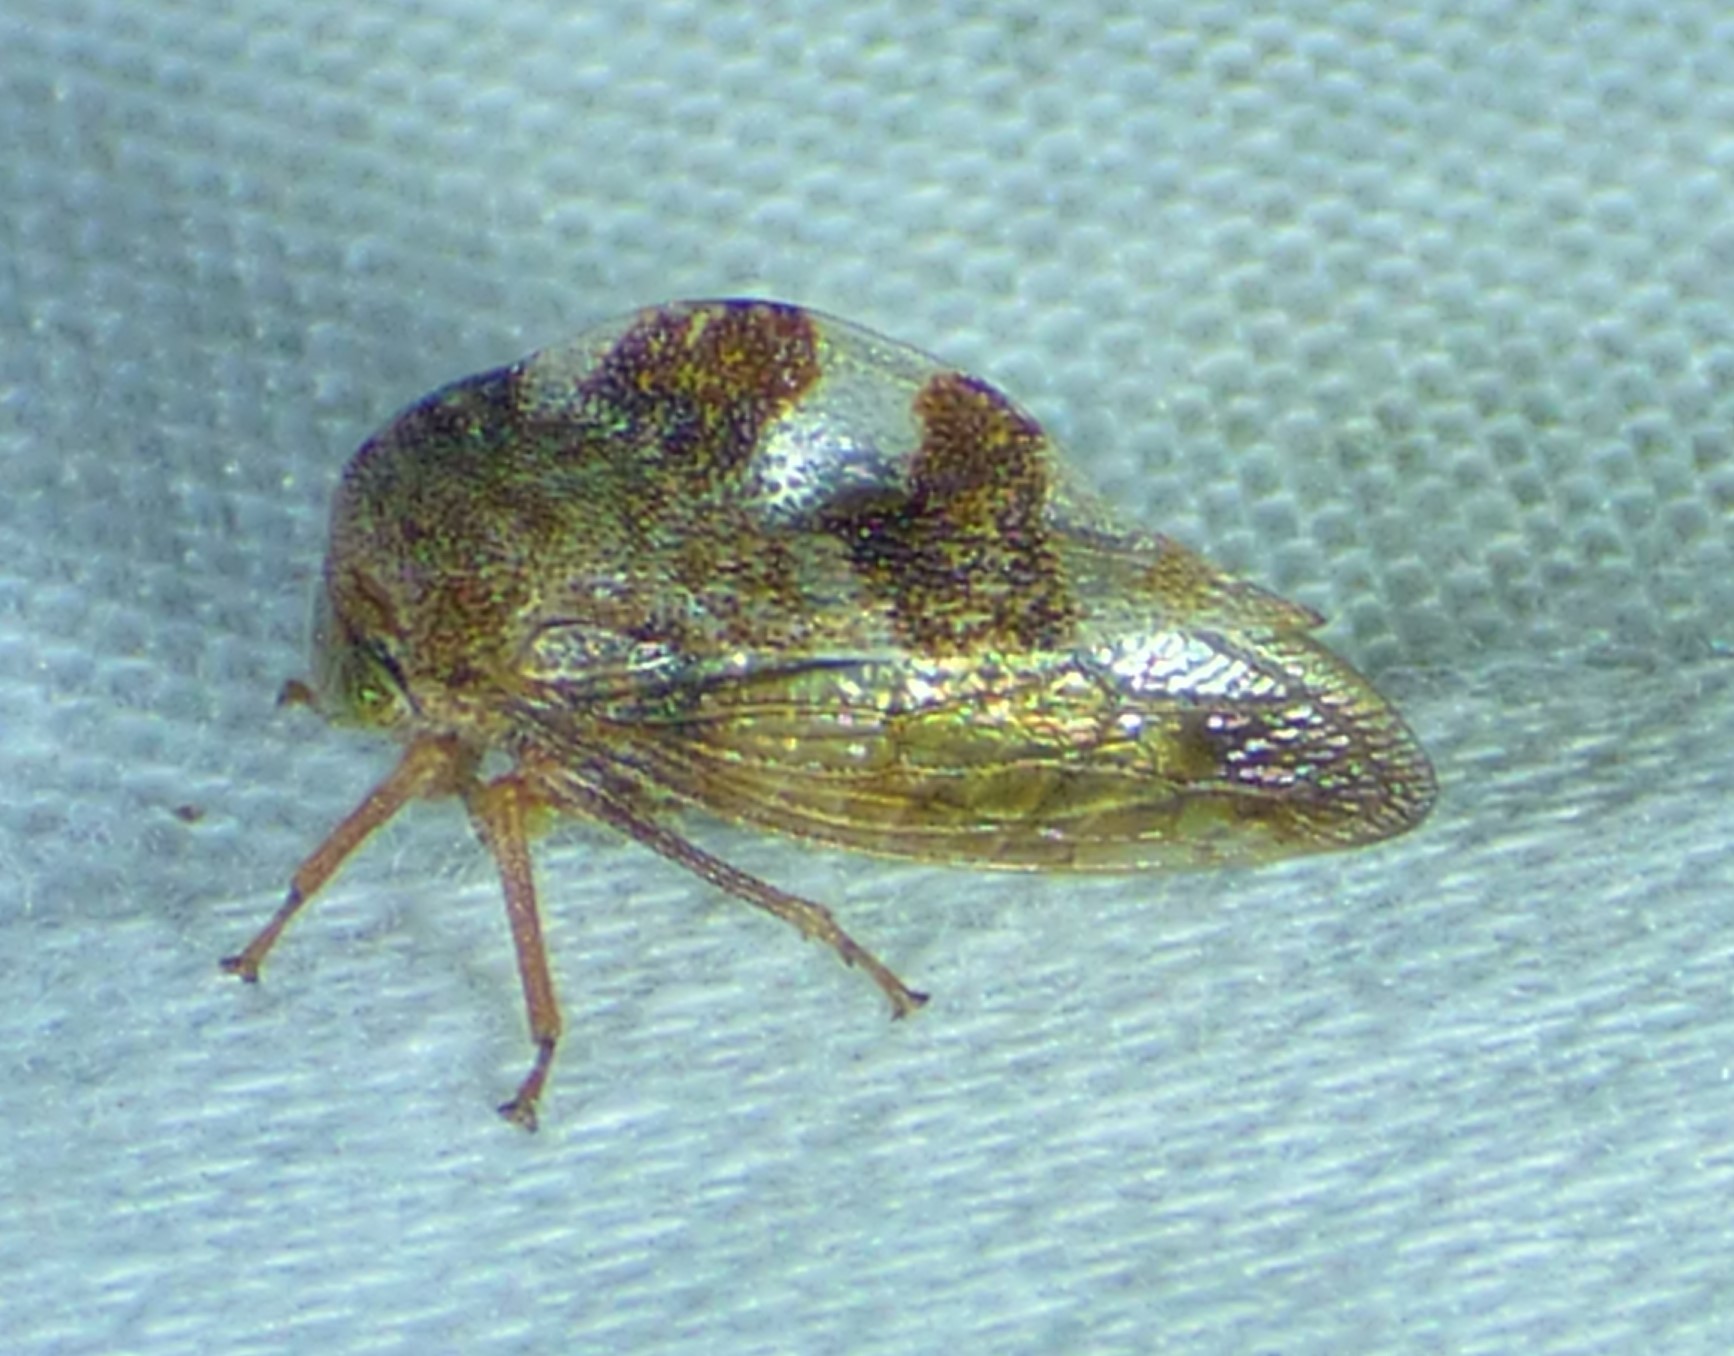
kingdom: Animalia
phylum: Arthropoda
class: Insecta
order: Hemiptera
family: Membracidae
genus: Cyrtolobus
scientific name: Cyrtolobus tuberosa
